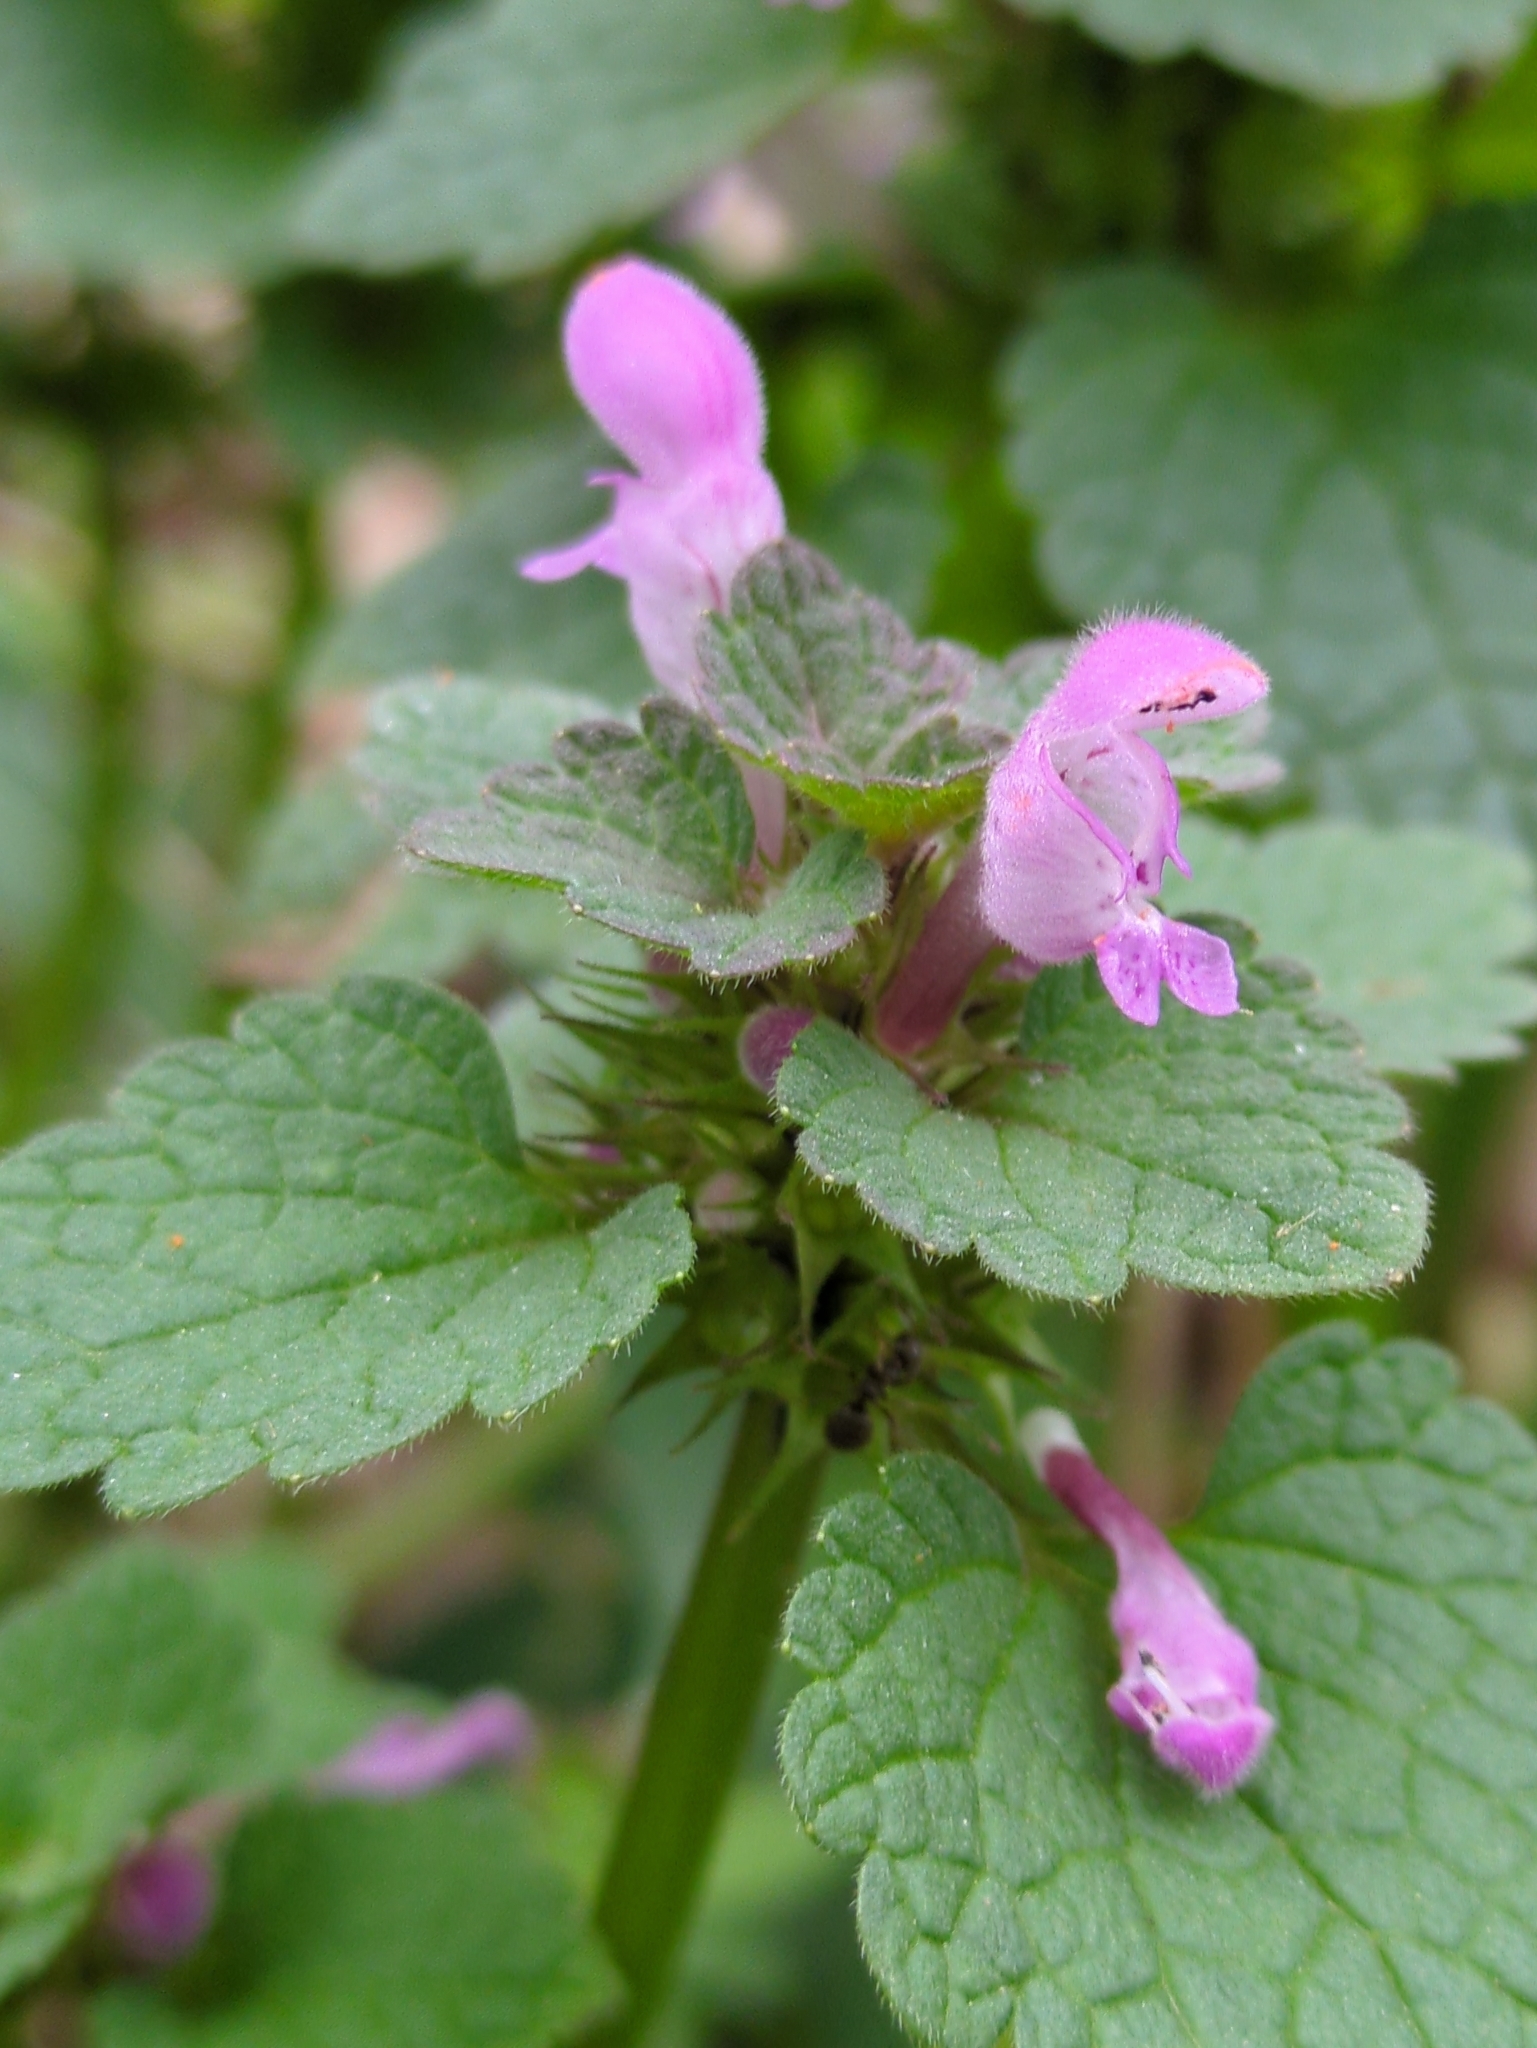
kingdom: Plantae
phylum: Tracheophyta
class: Magnoliopsida
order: Lamiales
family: Lamiaceae
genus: Lamium
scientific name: Lamium purpureum
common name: Red dead-nettle
